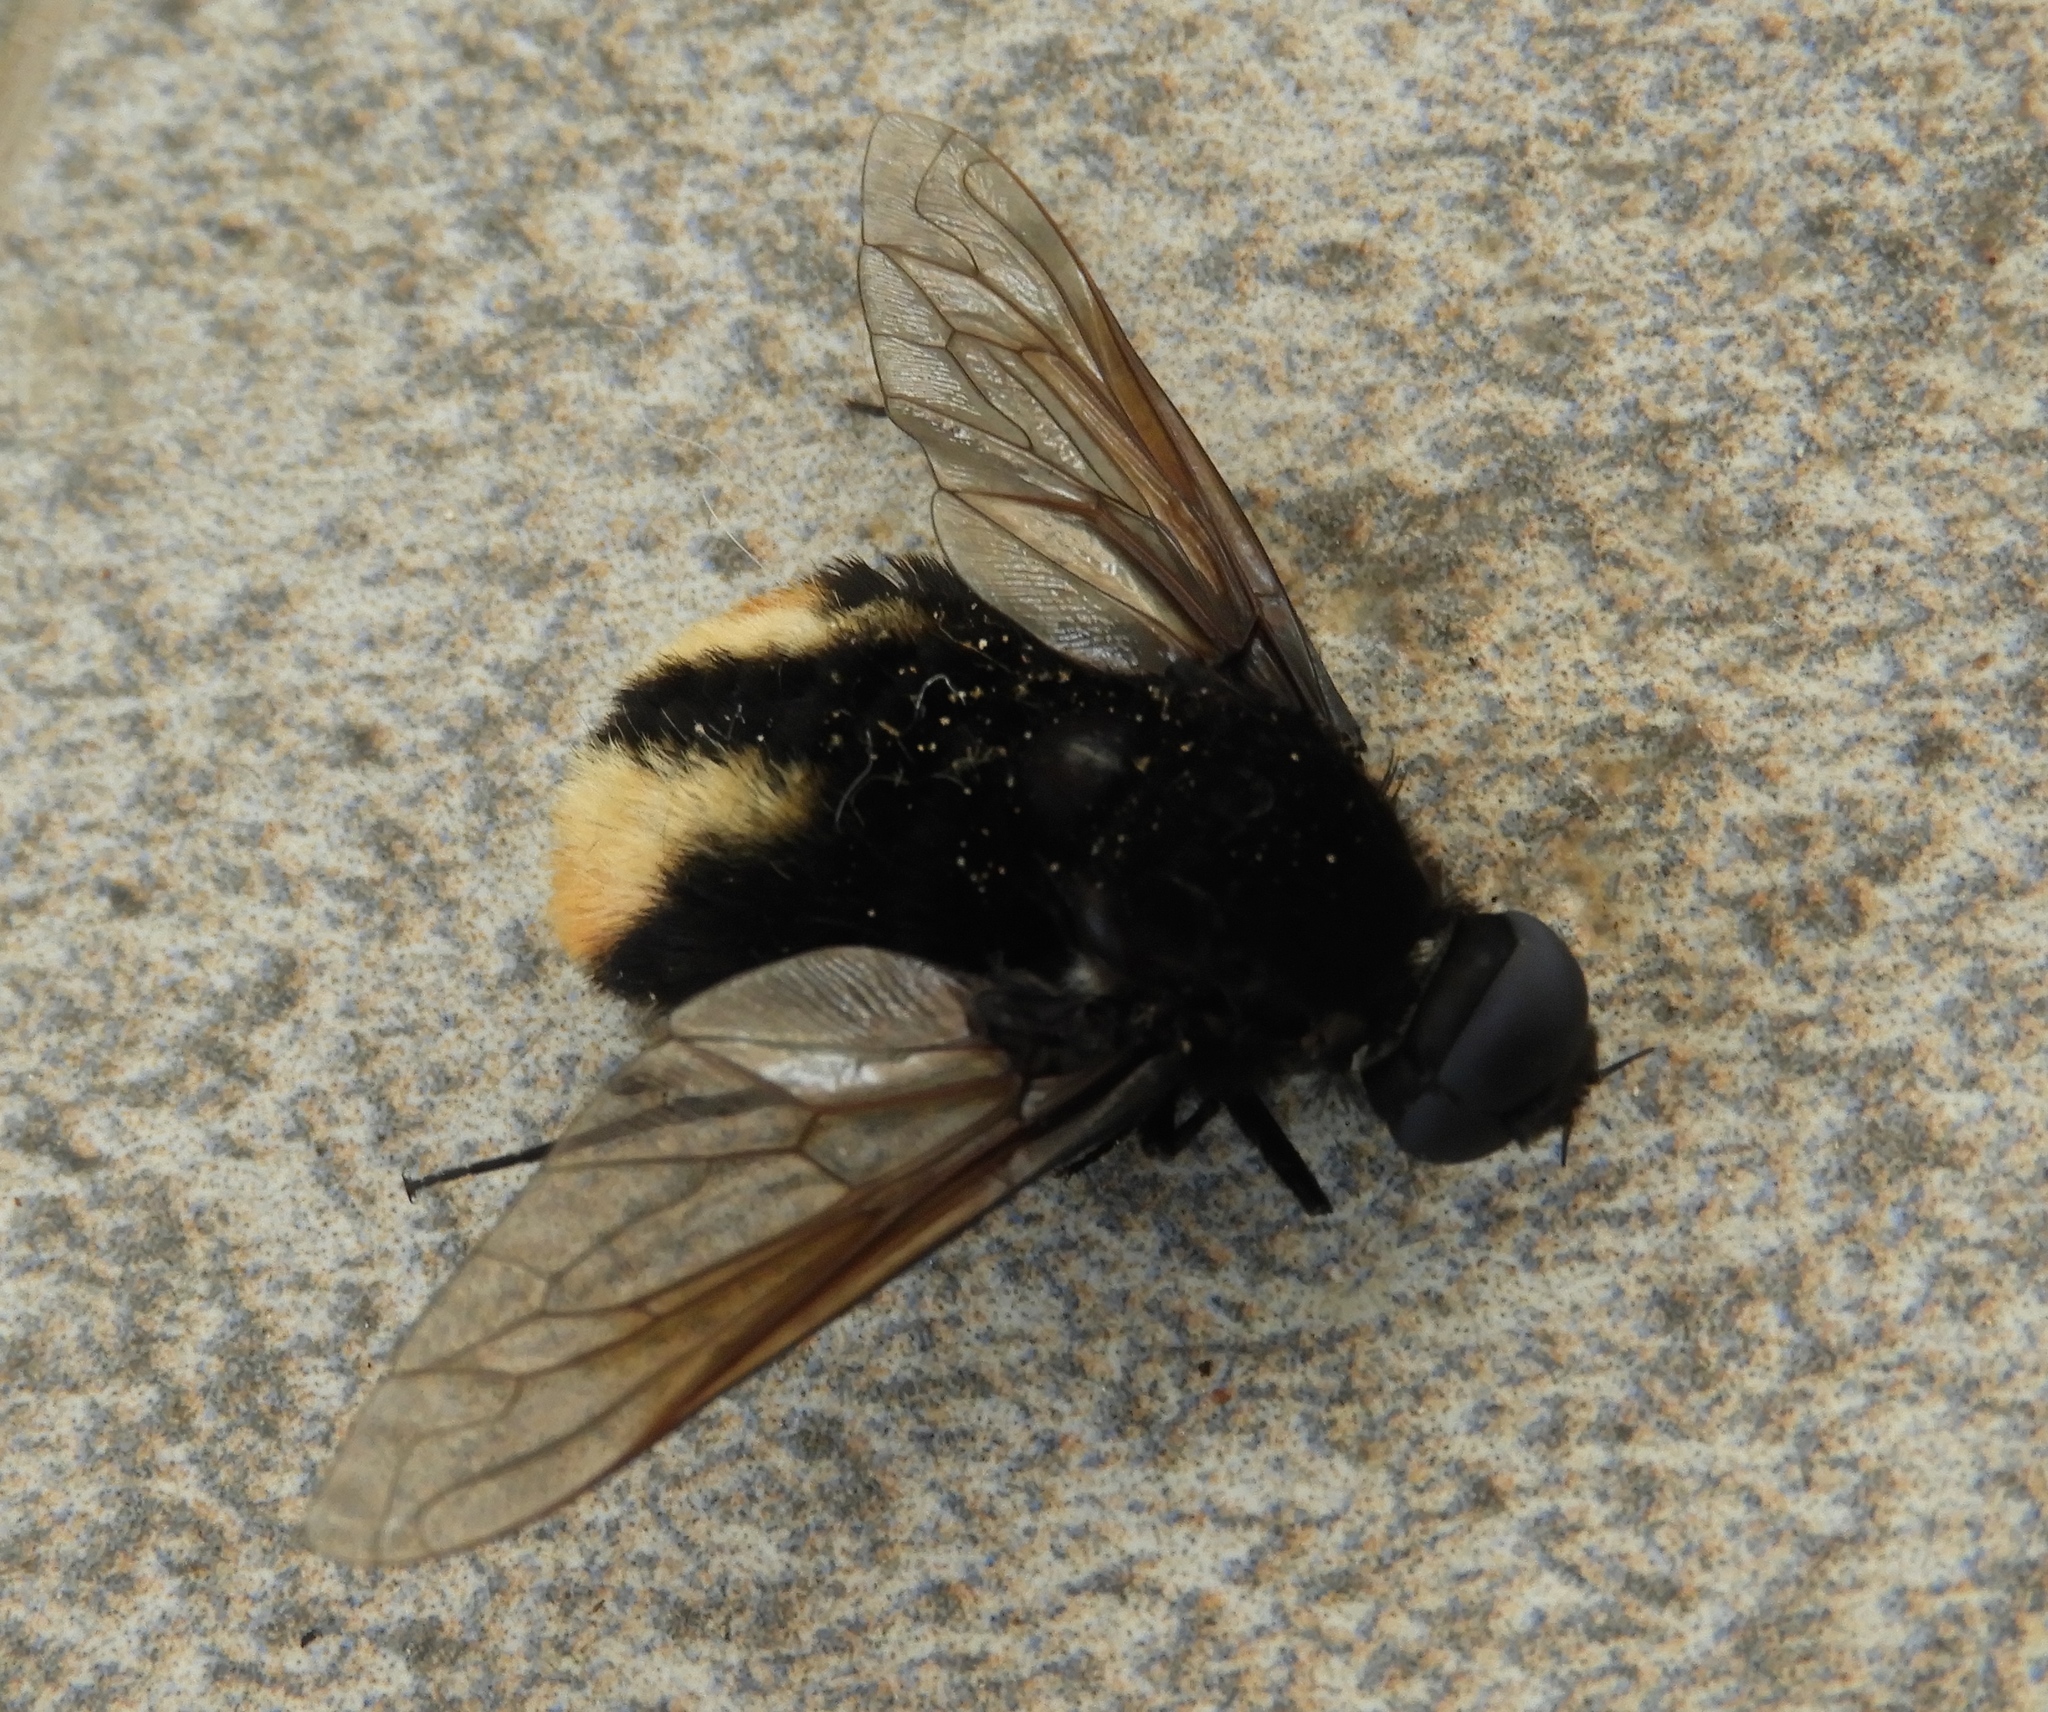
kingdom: Animalia
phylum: Arthropoda
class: Insecta
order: Diptera
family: Bombyliidae
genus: Bryodemina
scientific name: Bryodemina valida
